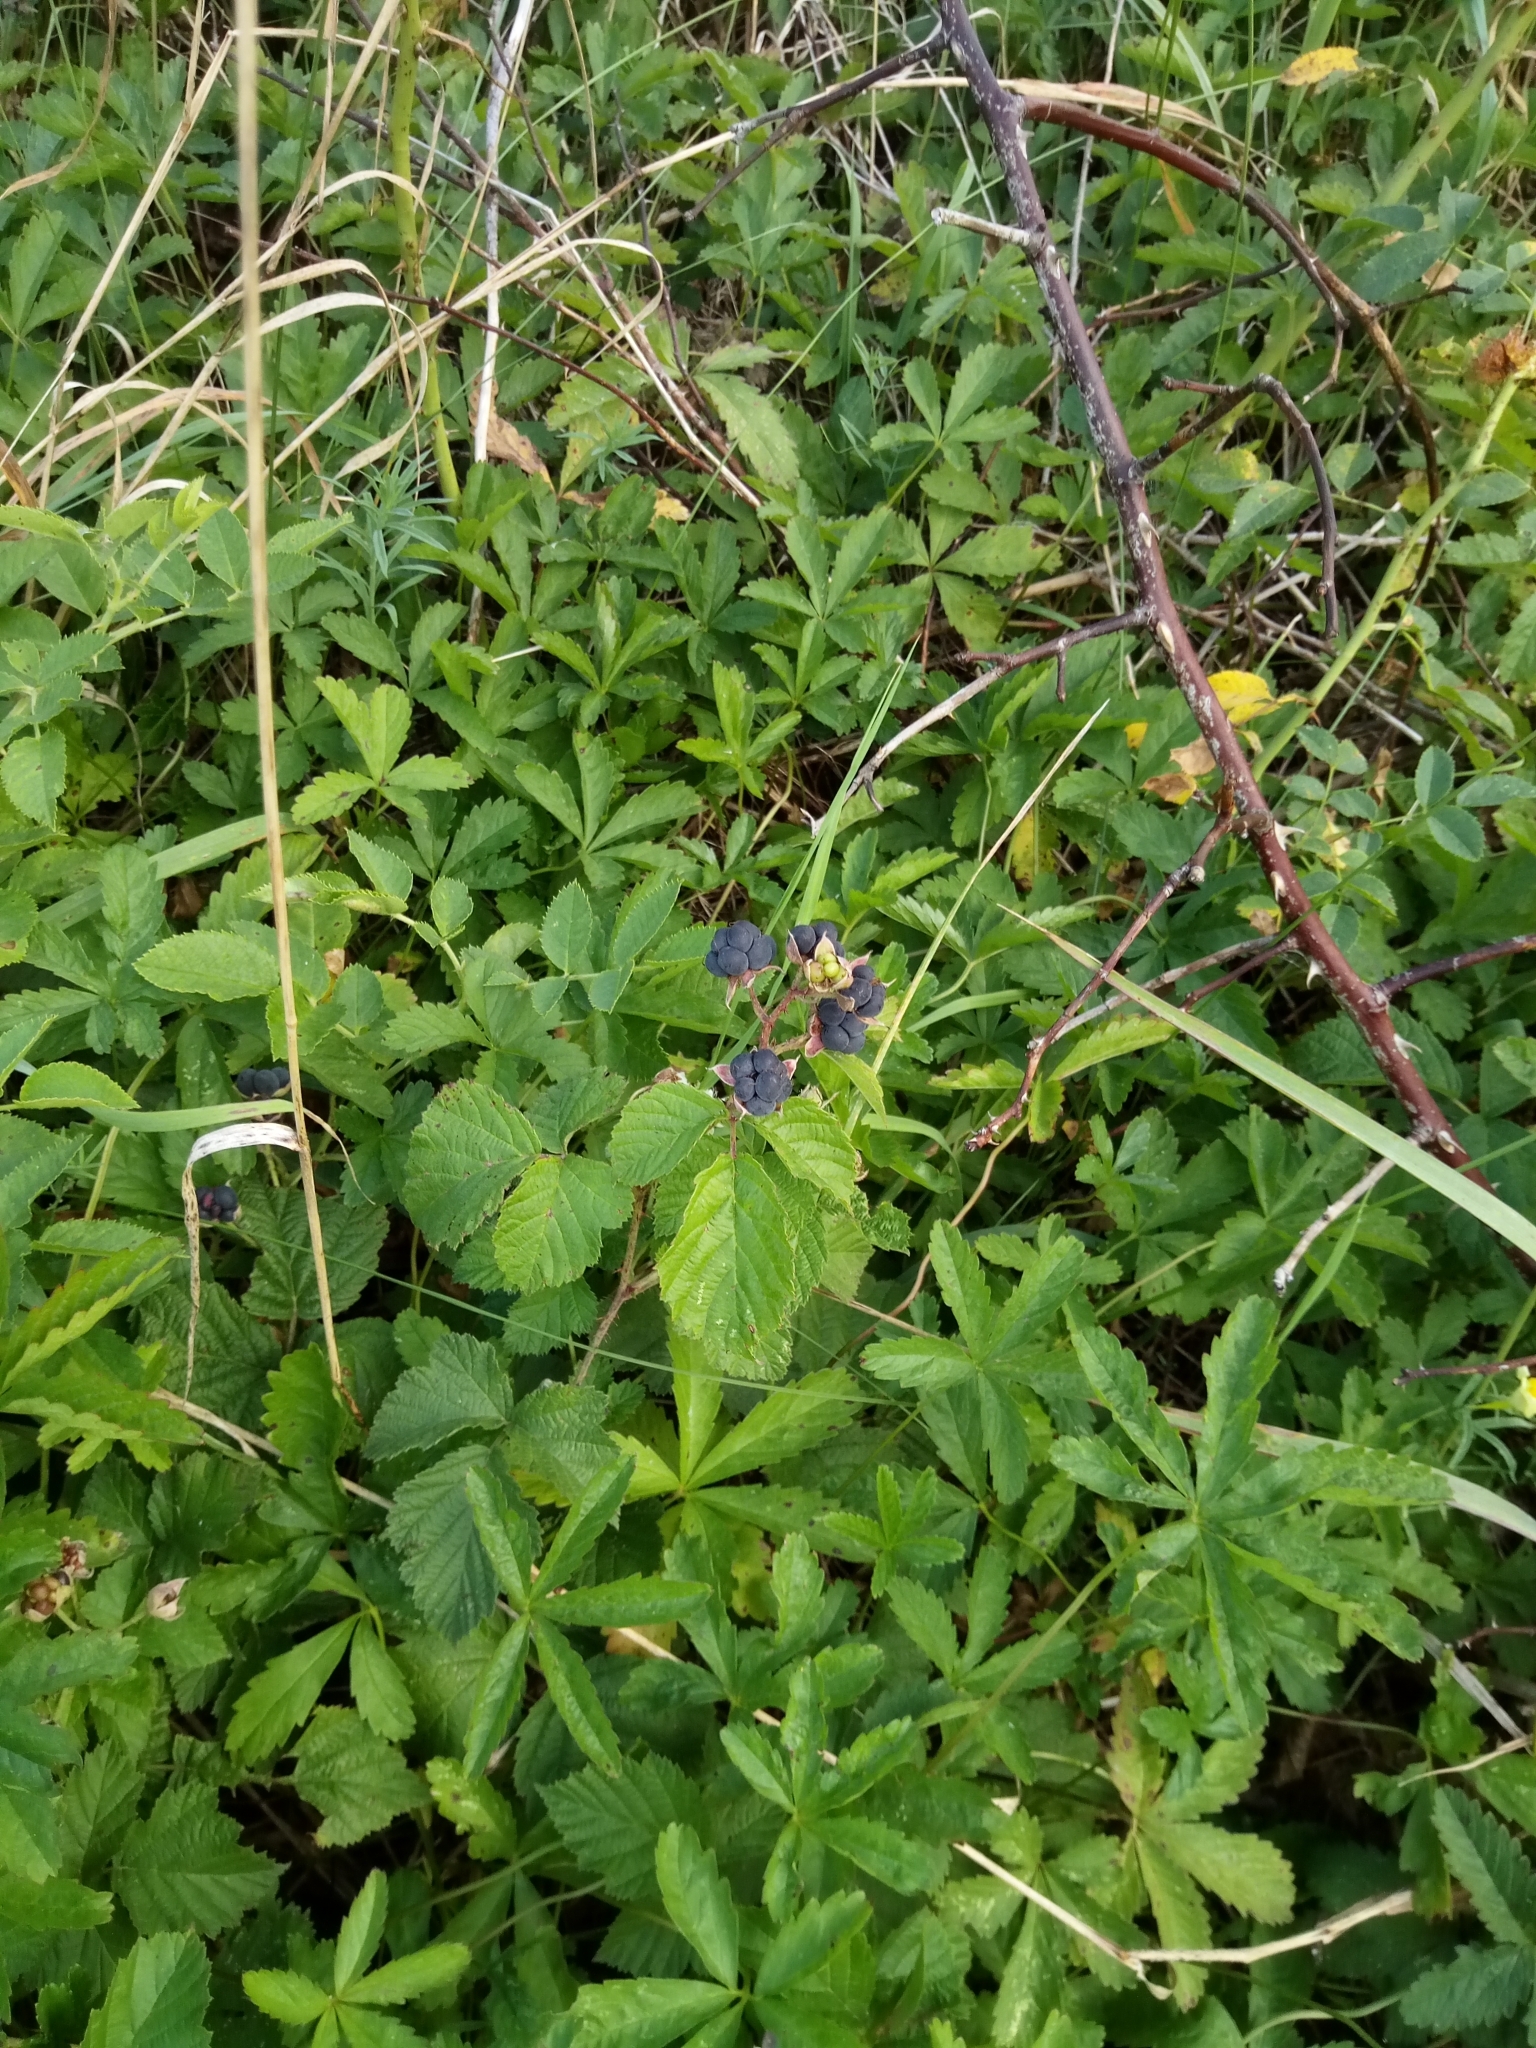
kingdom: Plantae
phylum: Tracheophyta
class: Magnoliopsida
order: Rosales
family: Rosaceae
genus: Rubus
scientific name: Rubus caesius
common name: Dewberry
